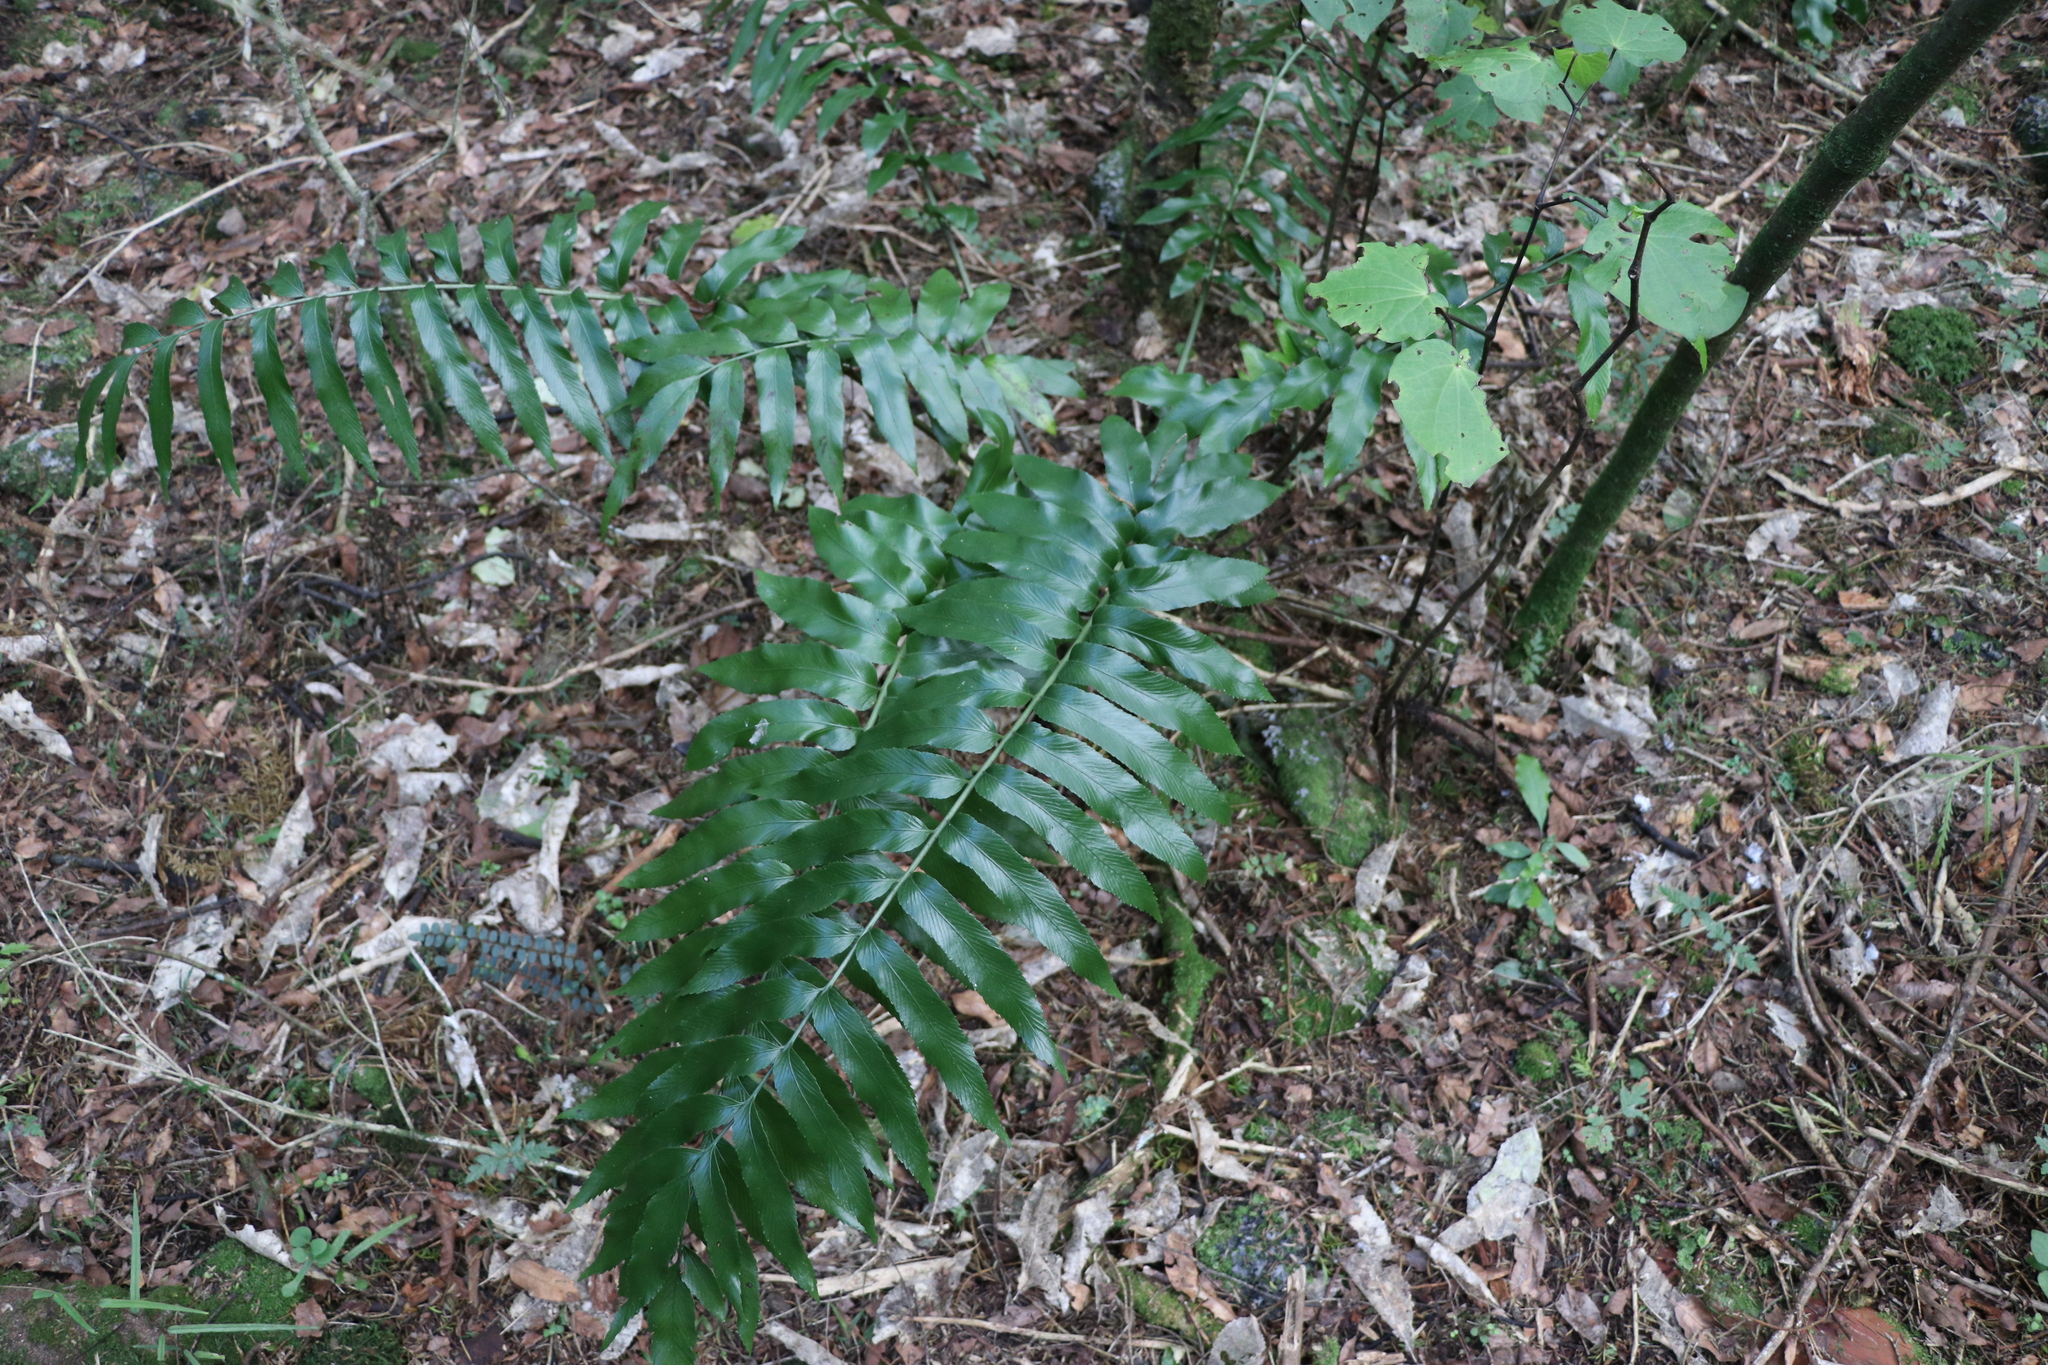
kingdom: Plantae
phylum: Tracheophyta
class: Polypodiopsida
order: Polypodiales
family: Aspleniaceae
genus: Asplenium
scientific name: Asplenium oblongifolium
